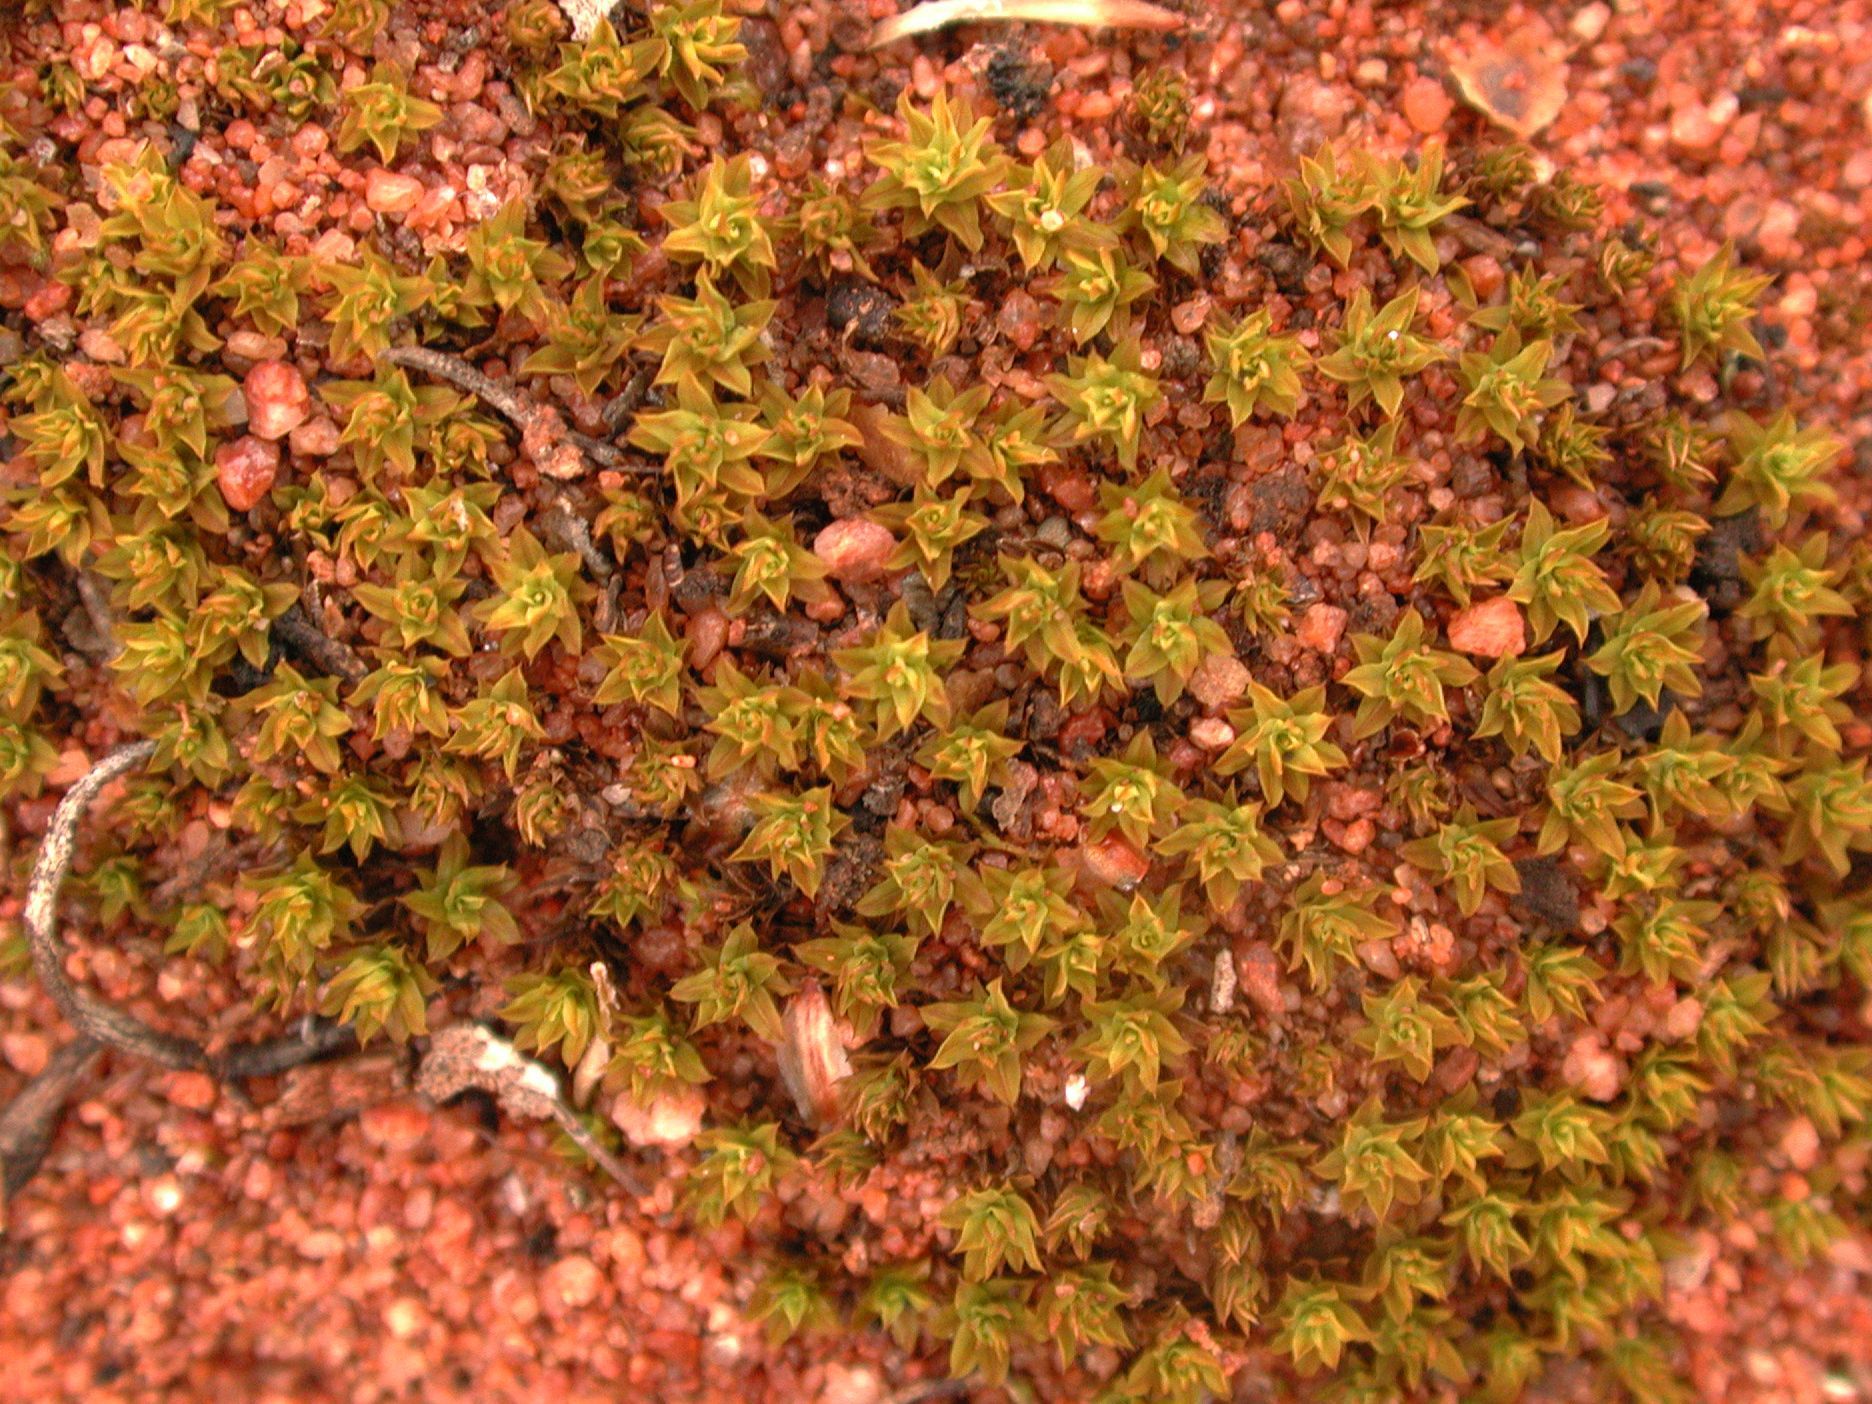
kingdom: Plantae
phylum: Bryophyta
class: Bryopsida
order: Pottiales
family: Pottiaceae
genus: Barbula
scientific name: Barbula calycina
